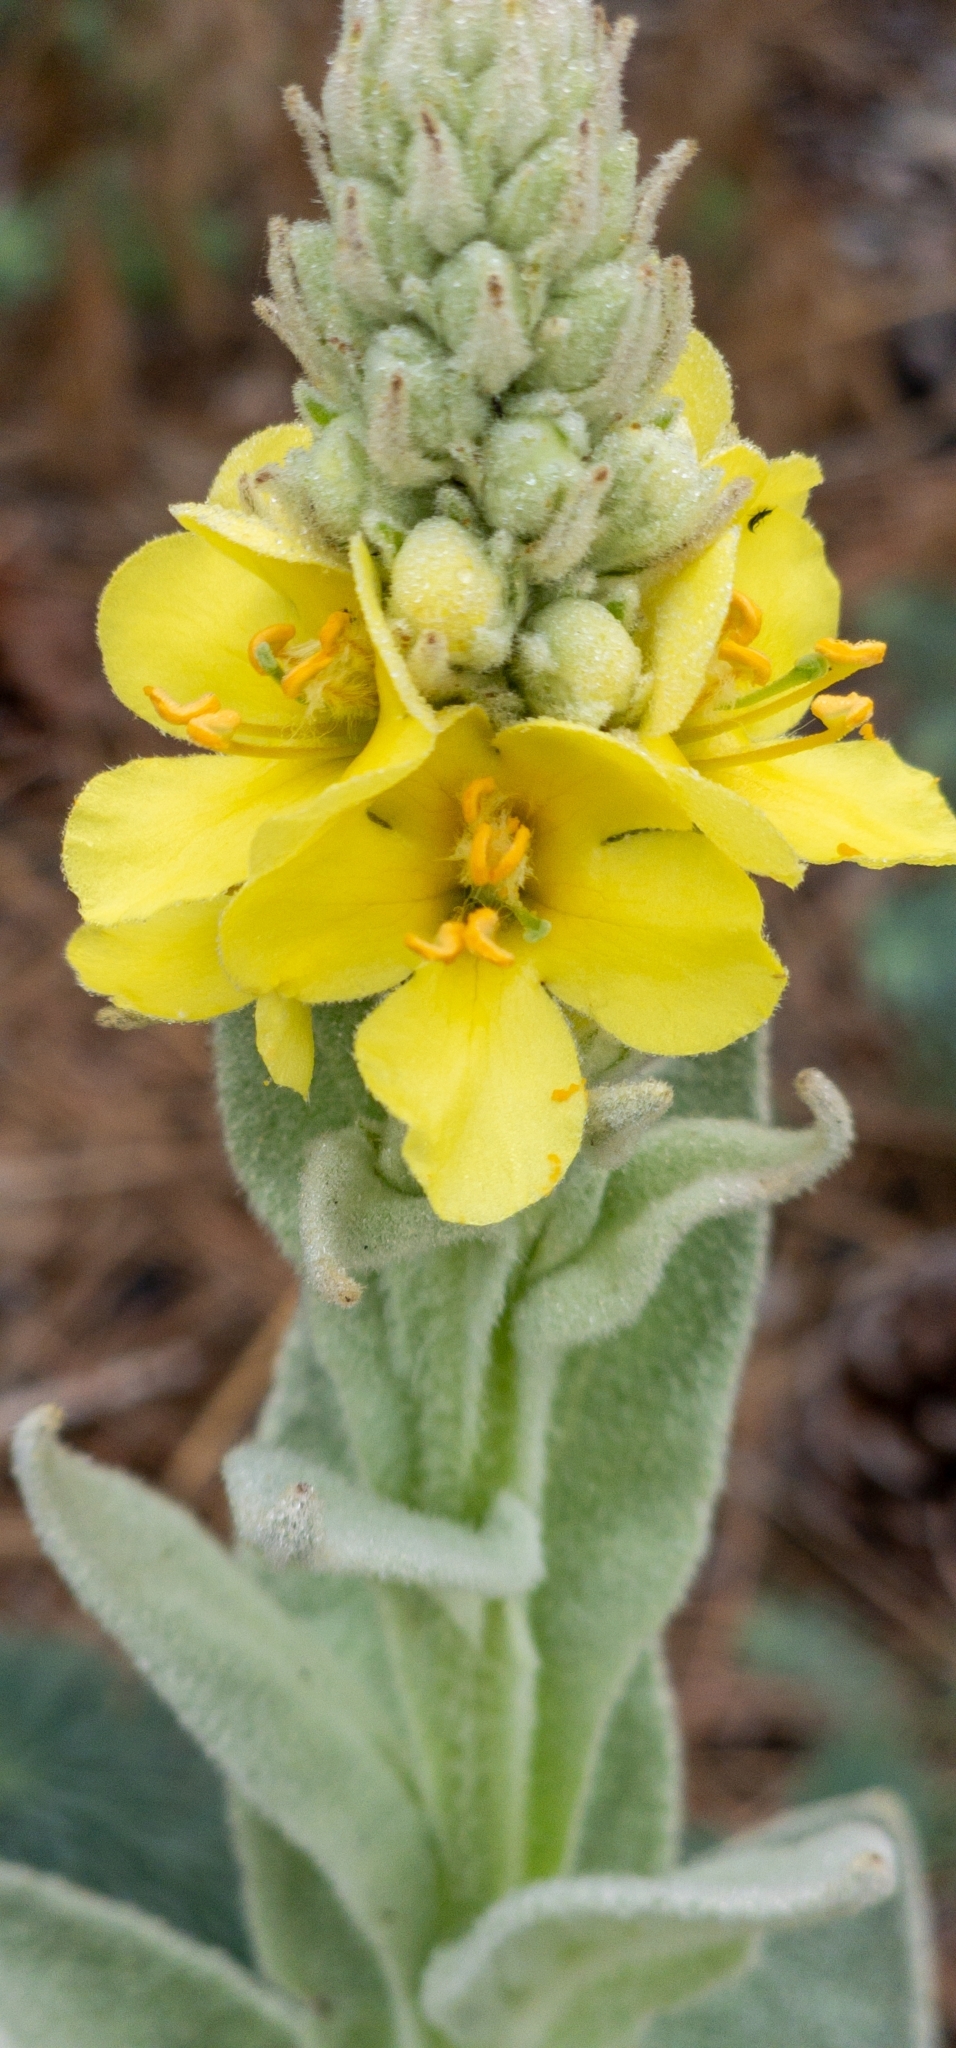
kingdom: Plantae
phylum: Tracheophyta
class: Magnoliopsida
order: Lamiales
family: Scrophulariaceae
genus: Verbascum
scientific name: Verbascum thapsus
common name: Common mullein
